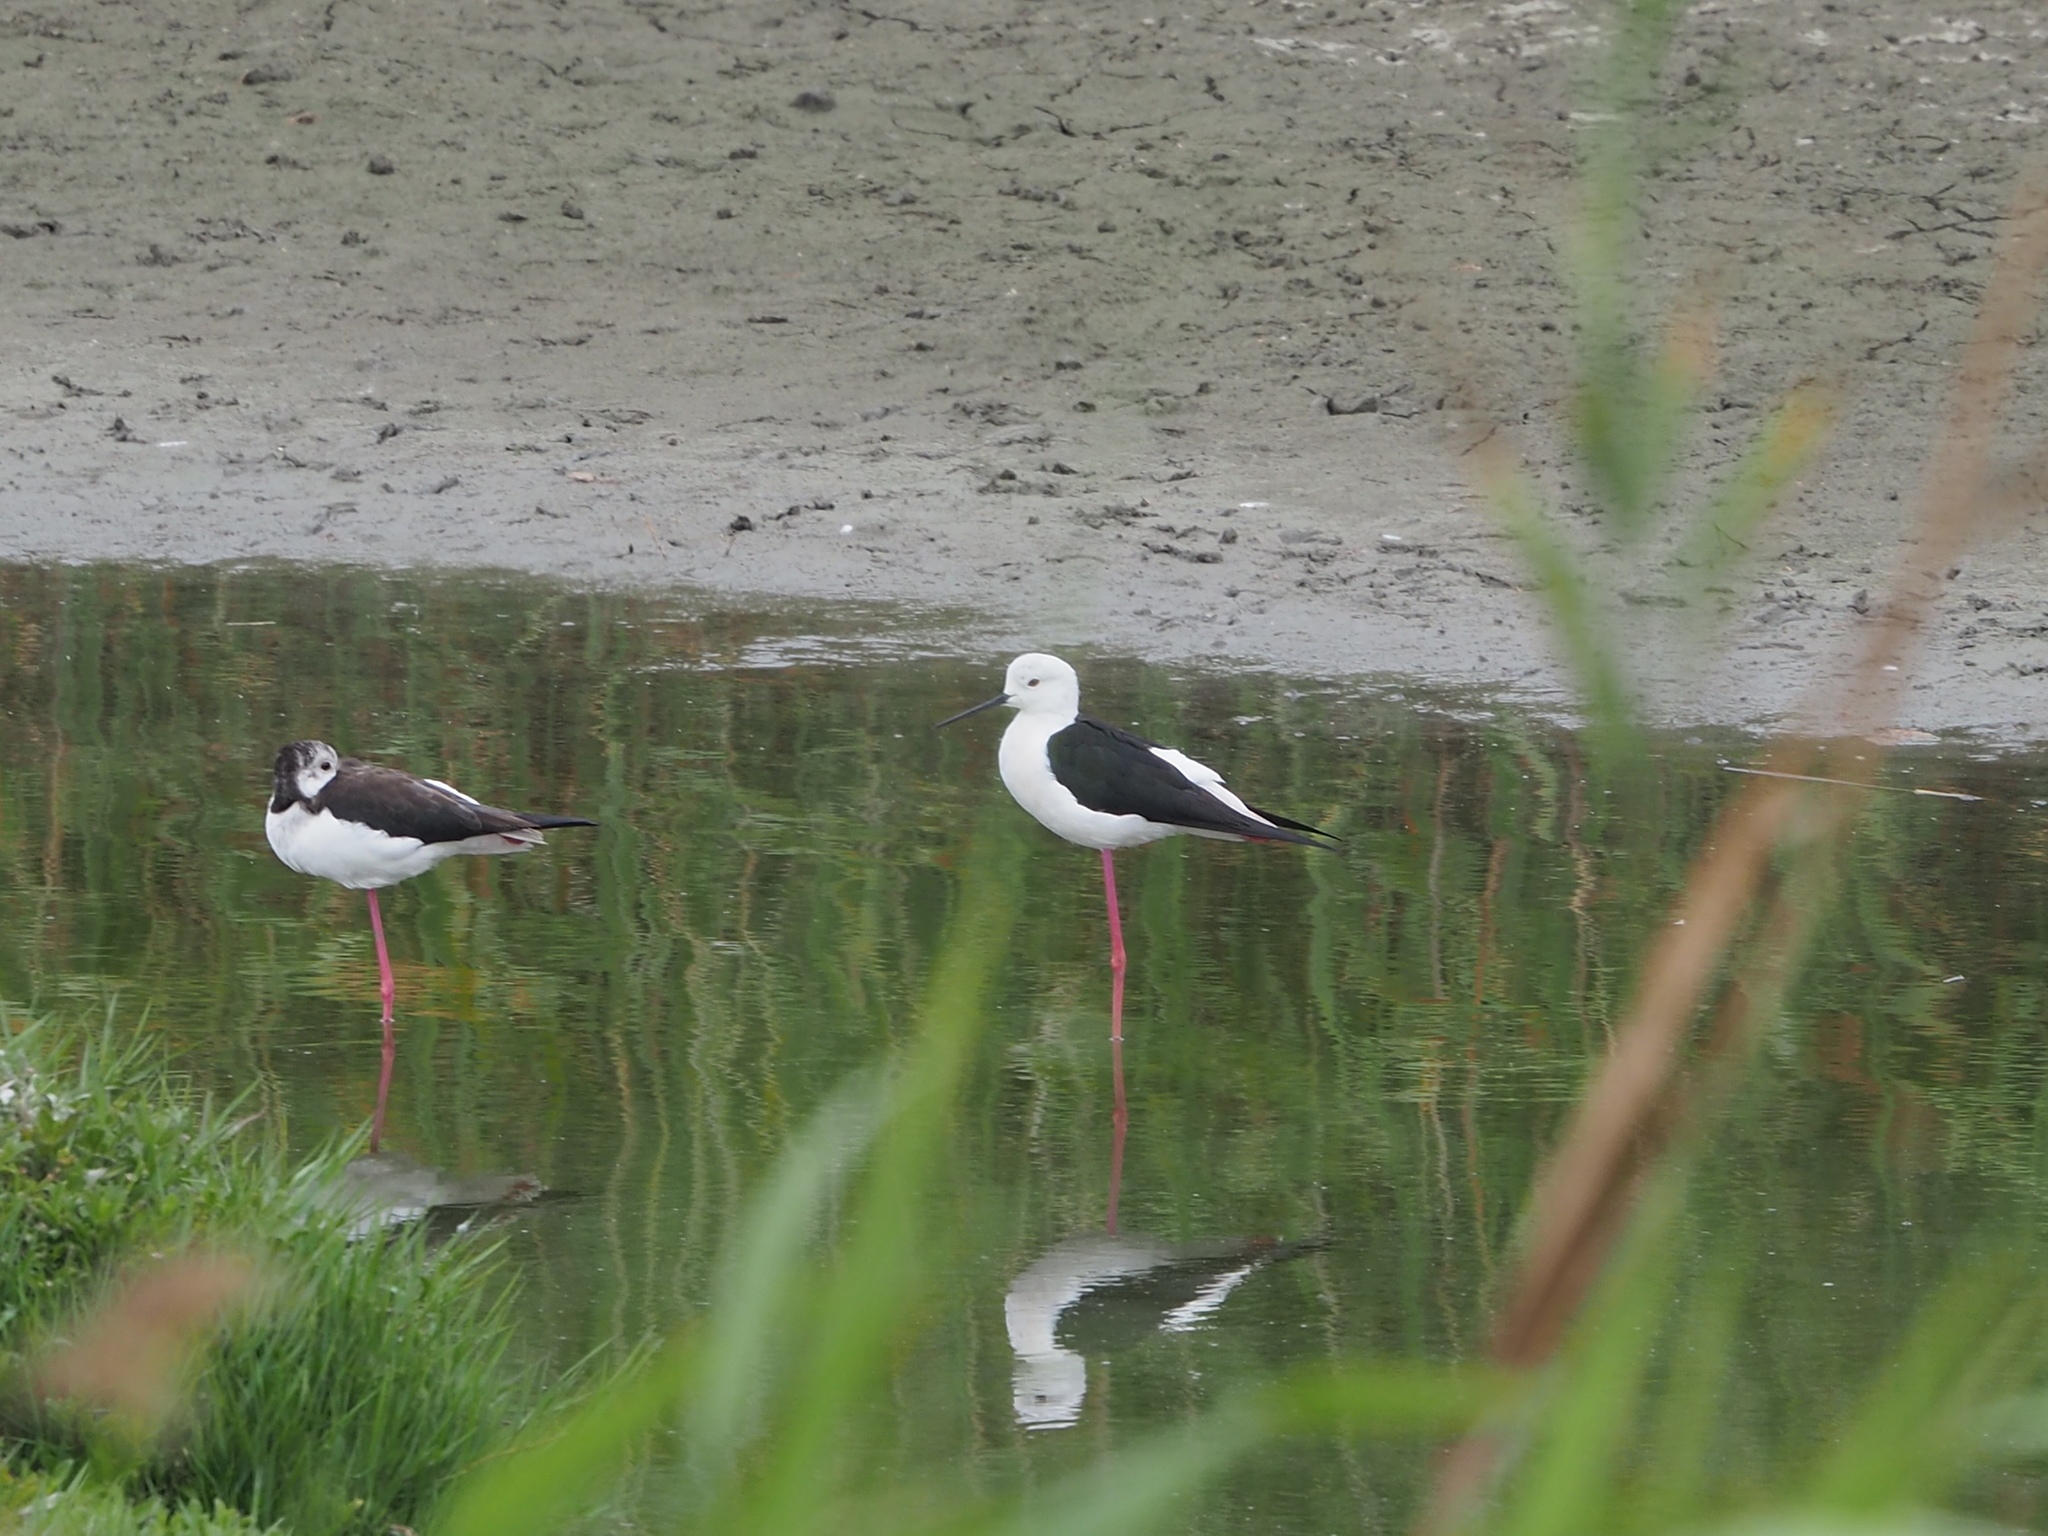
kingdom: Animalia
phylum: Chordata
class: Aves
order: Charadriiformes
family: Recurvirostridae
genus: Himantopus
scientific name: Himantopus himantopus
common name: Black-winged stilt
